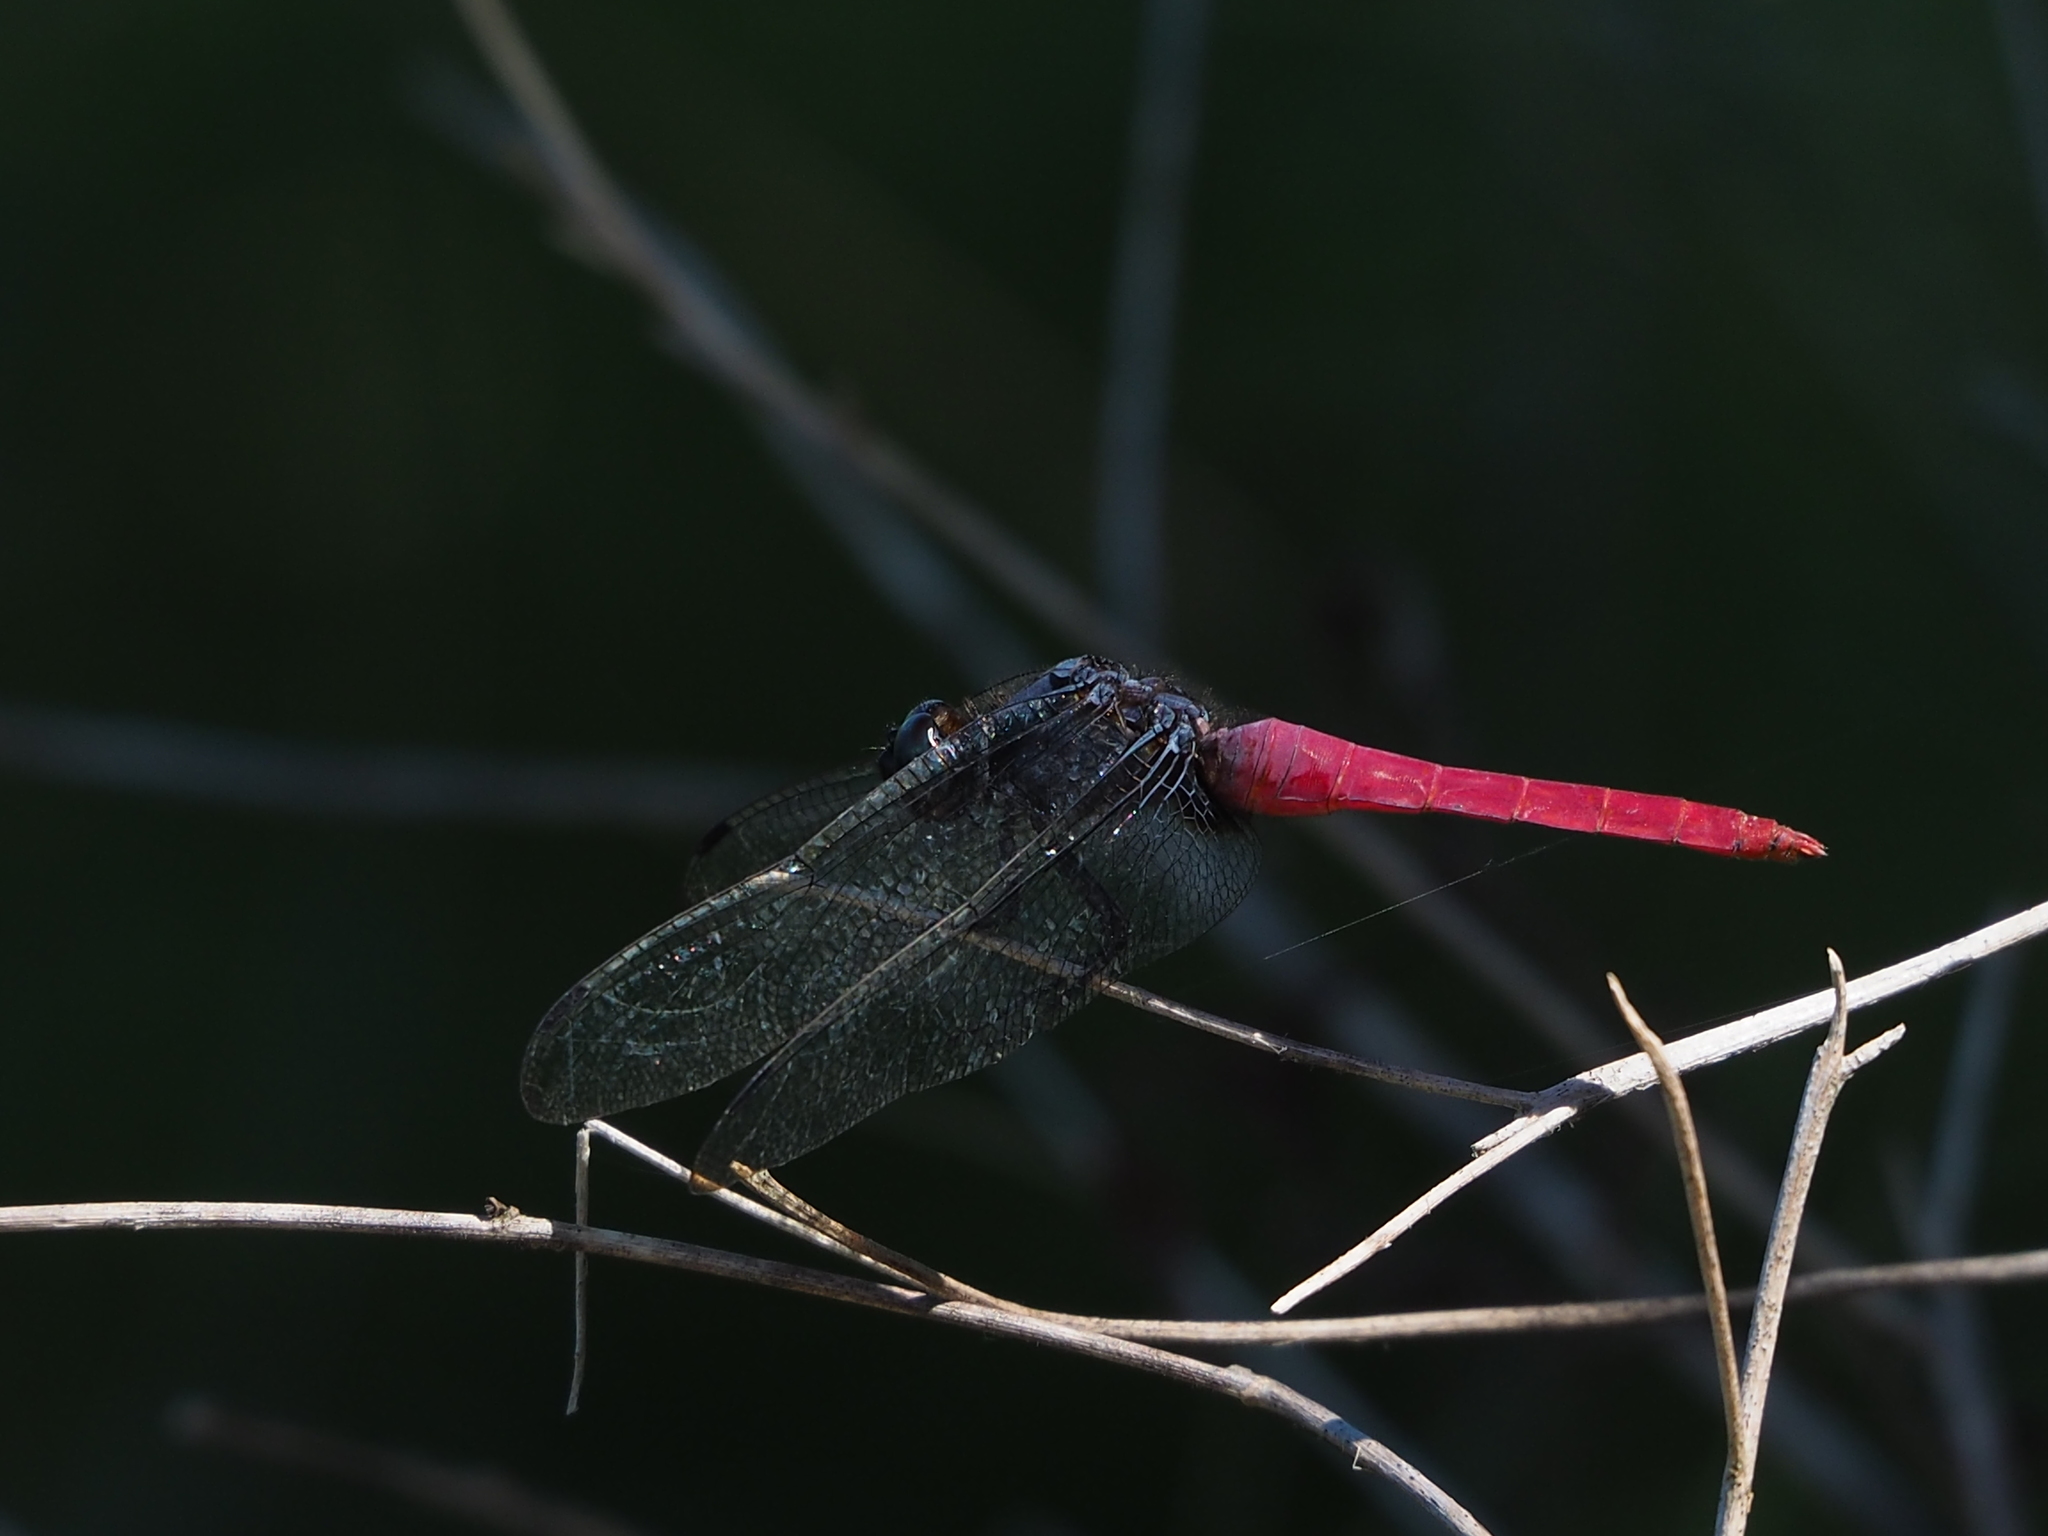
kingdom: Animalia
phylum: Arthropoda
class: Insecta
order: Odonata
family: Libellulidae
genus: Orthetrum
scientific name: Orthetrum pruinosum
